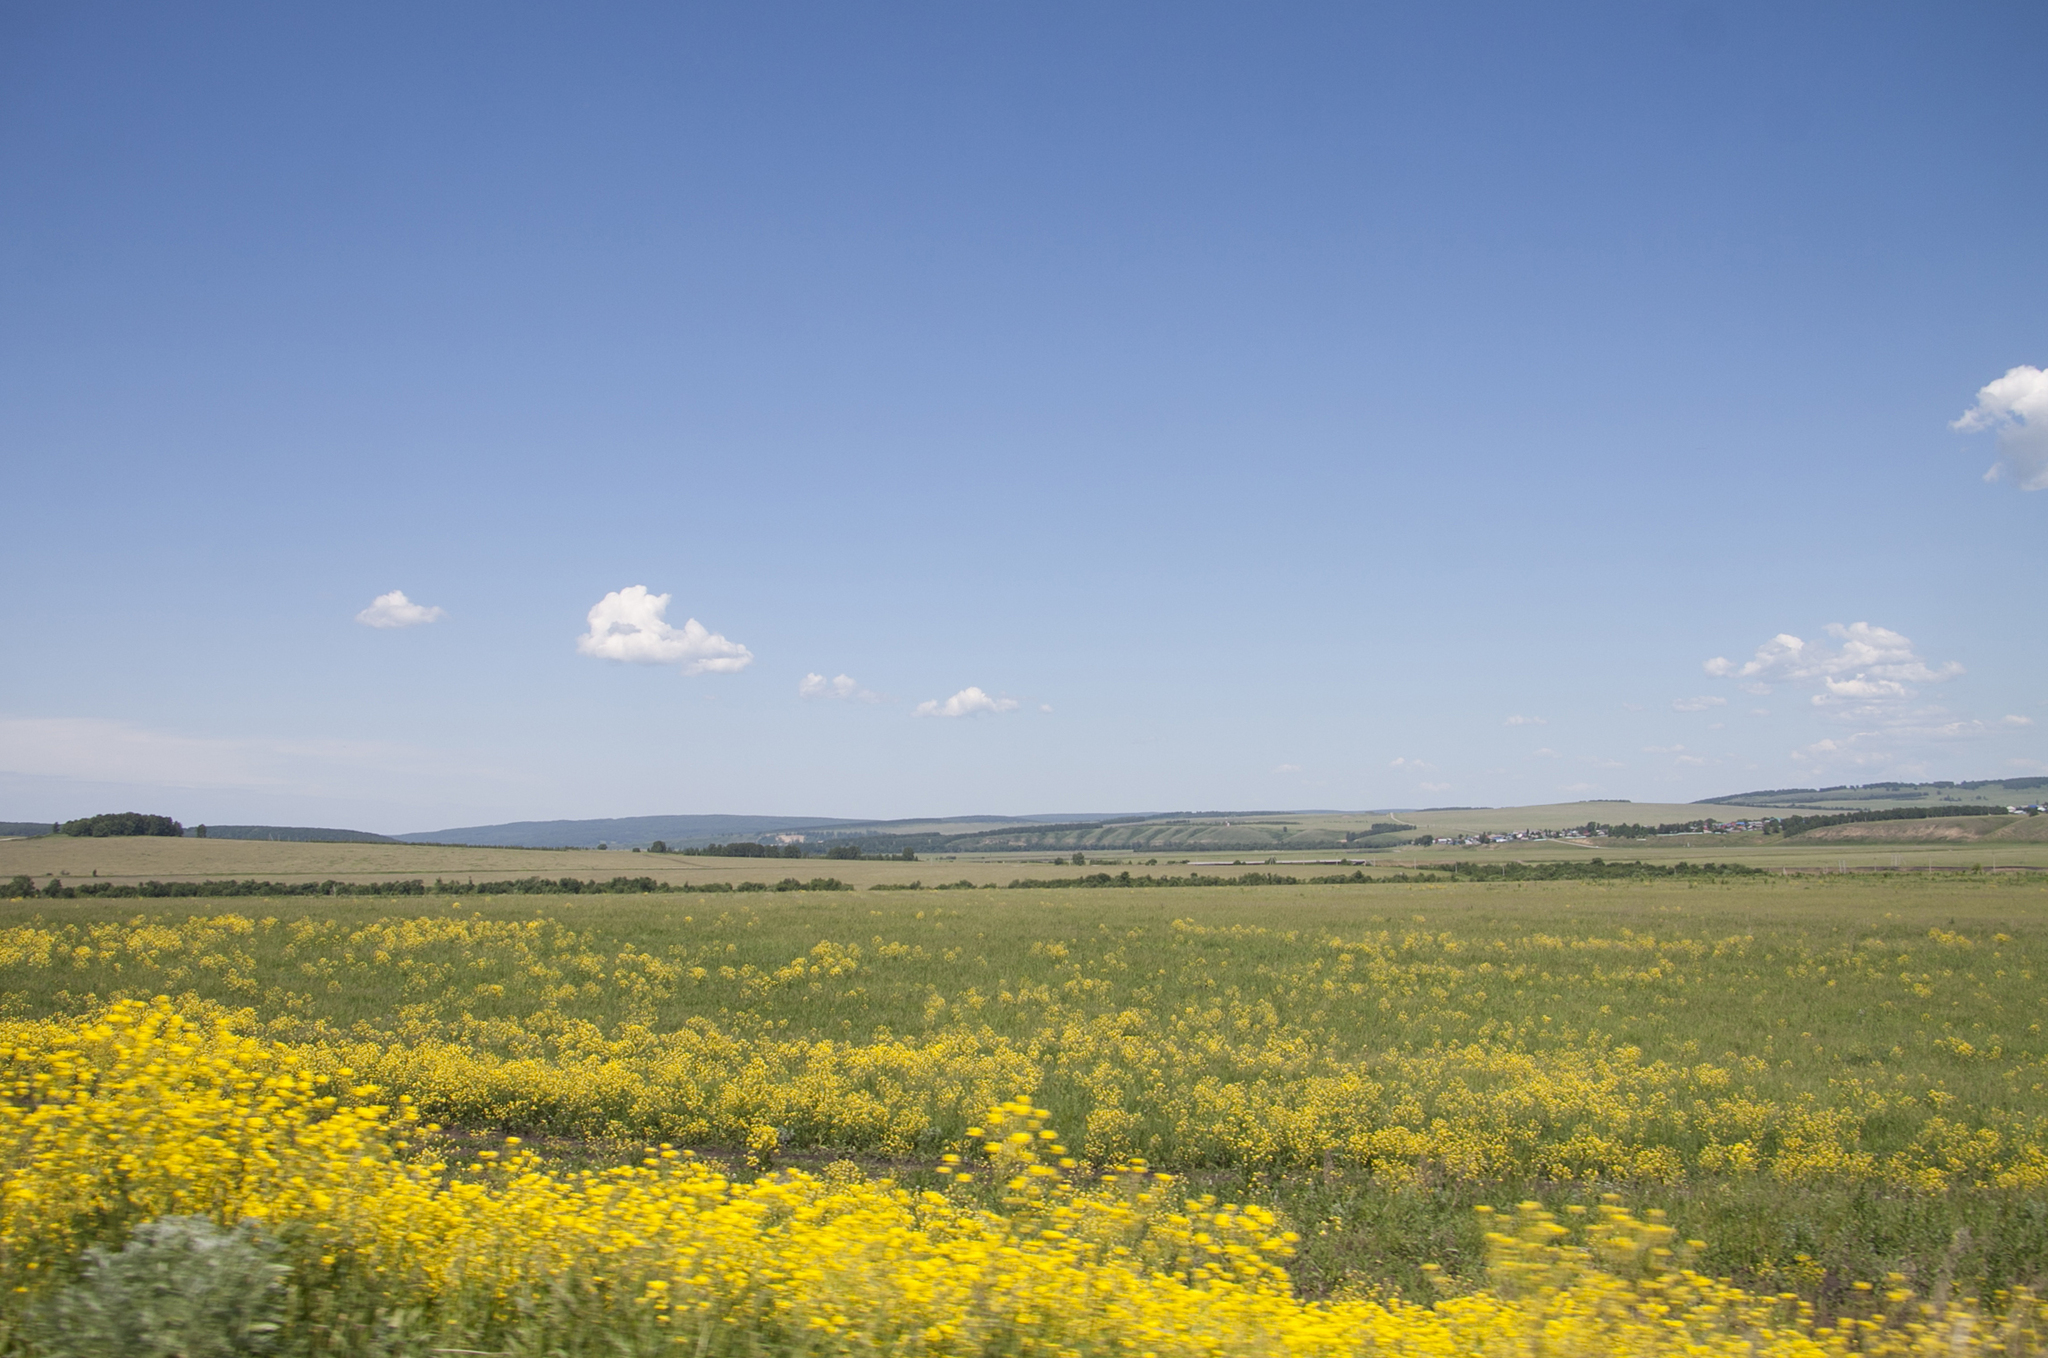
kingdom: Plantae
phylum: Tracheophyta
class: Magnoliopsida
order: Brassicales
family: Brassicaceae
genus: Bunias
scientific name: Bunias orientalis
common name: Warty-cabbage
